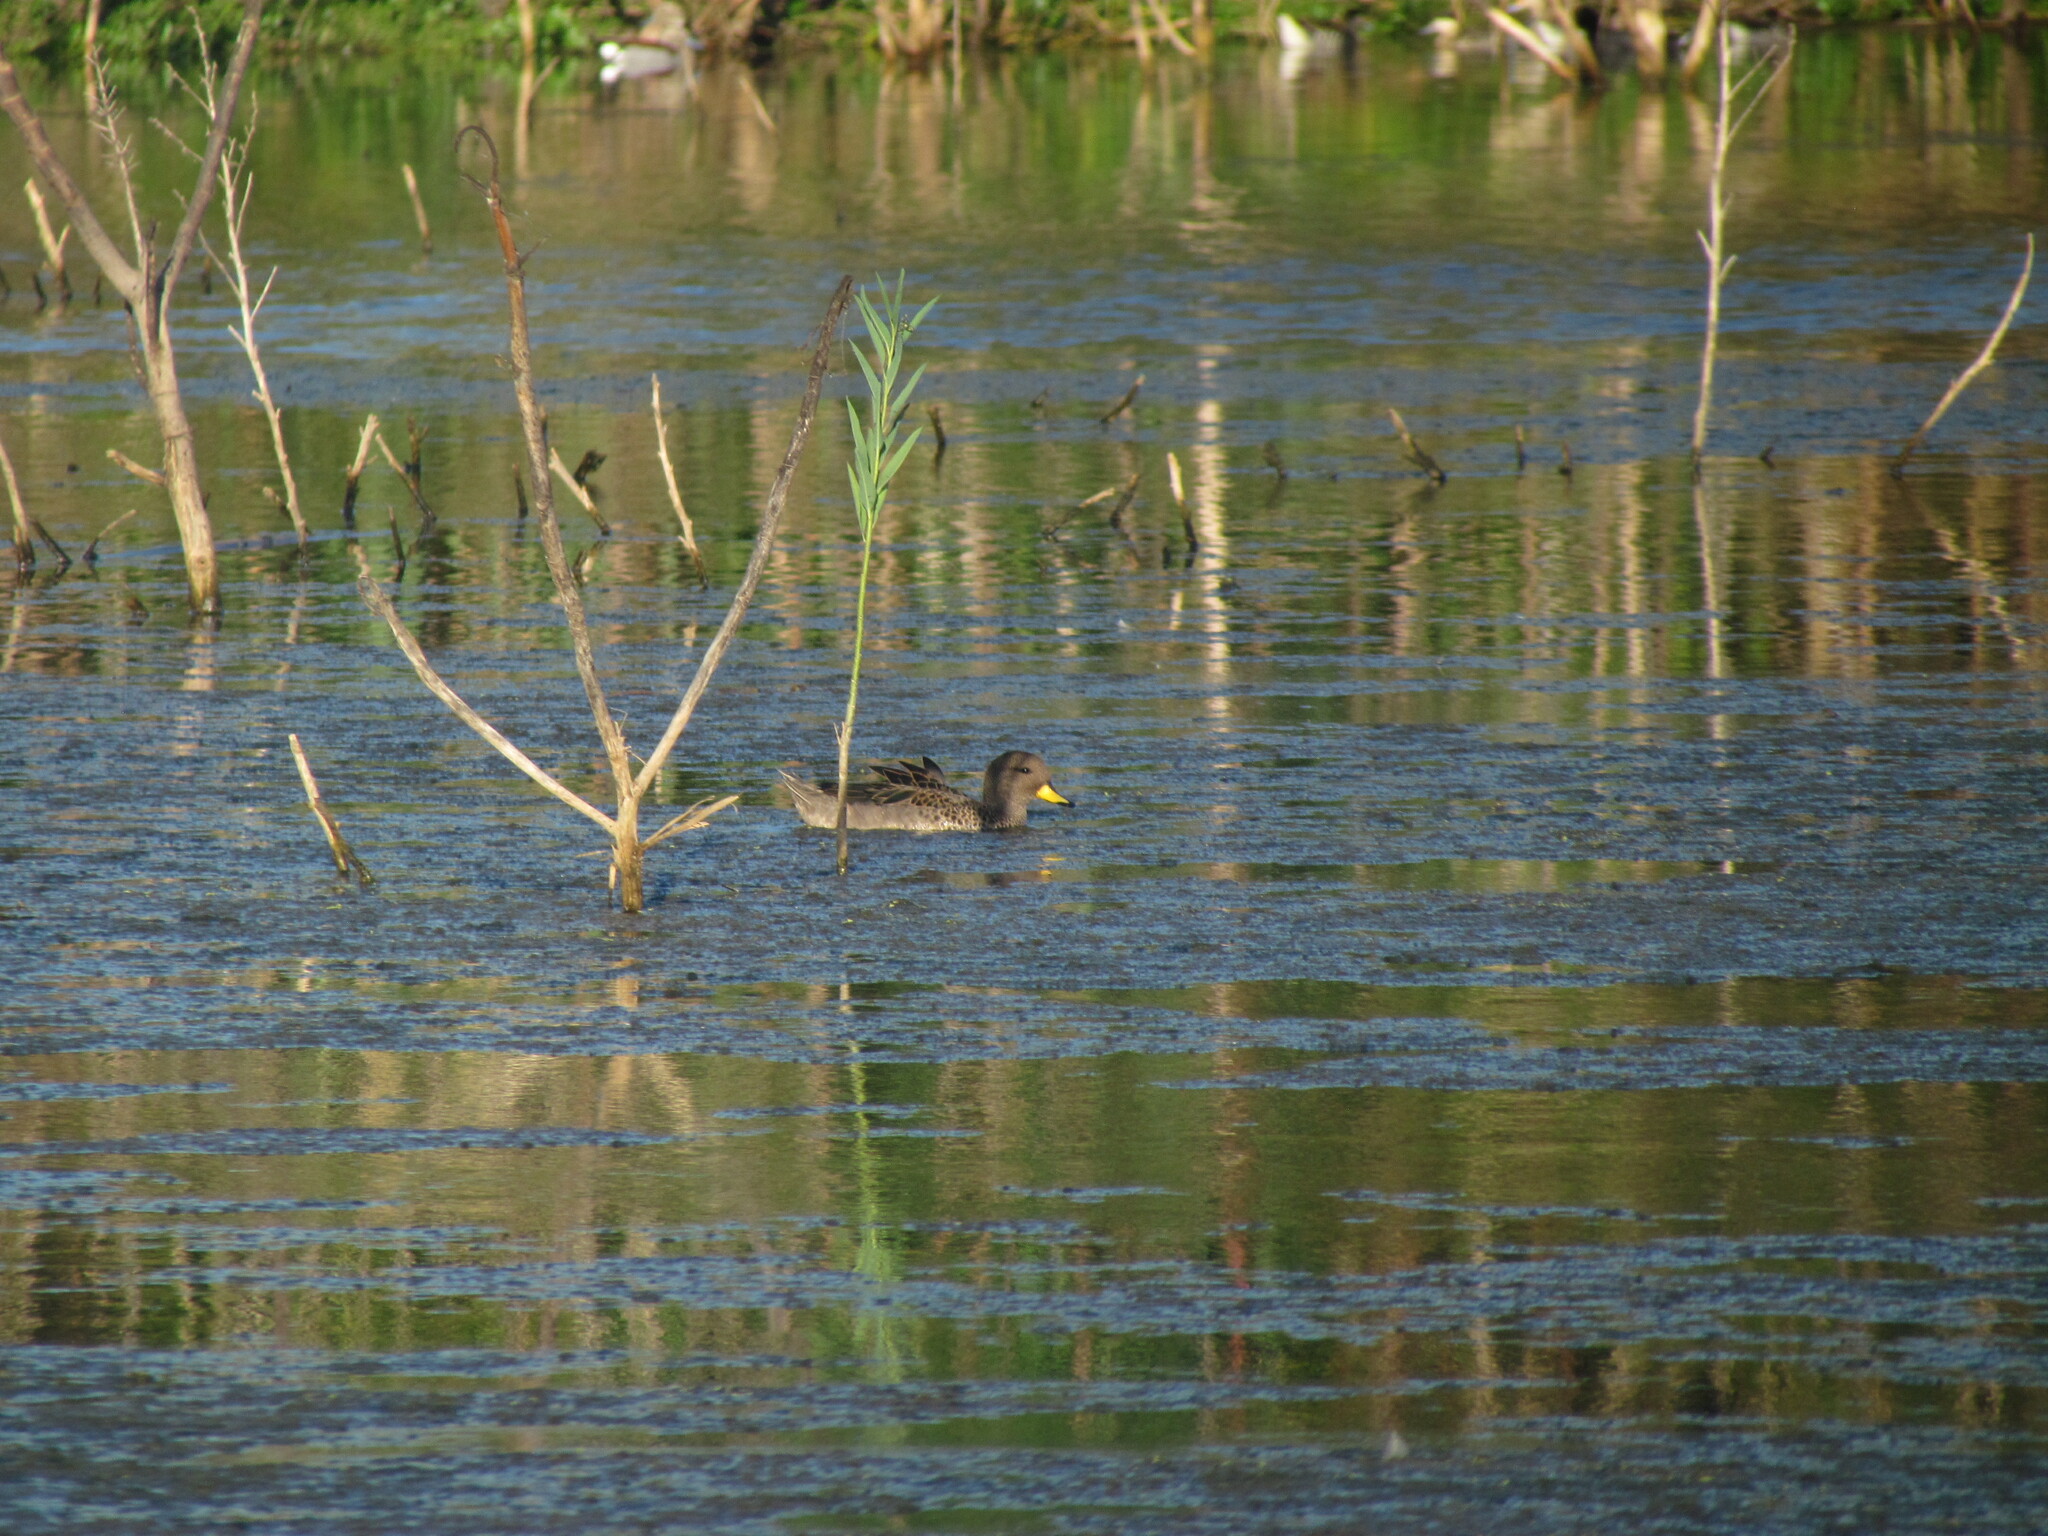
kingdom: Animalia
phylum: Chordata
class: Aves
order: Anseriformes
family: Anatidae
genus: Anas
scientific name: Anas flavirostris
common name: Yellow-billed teal
